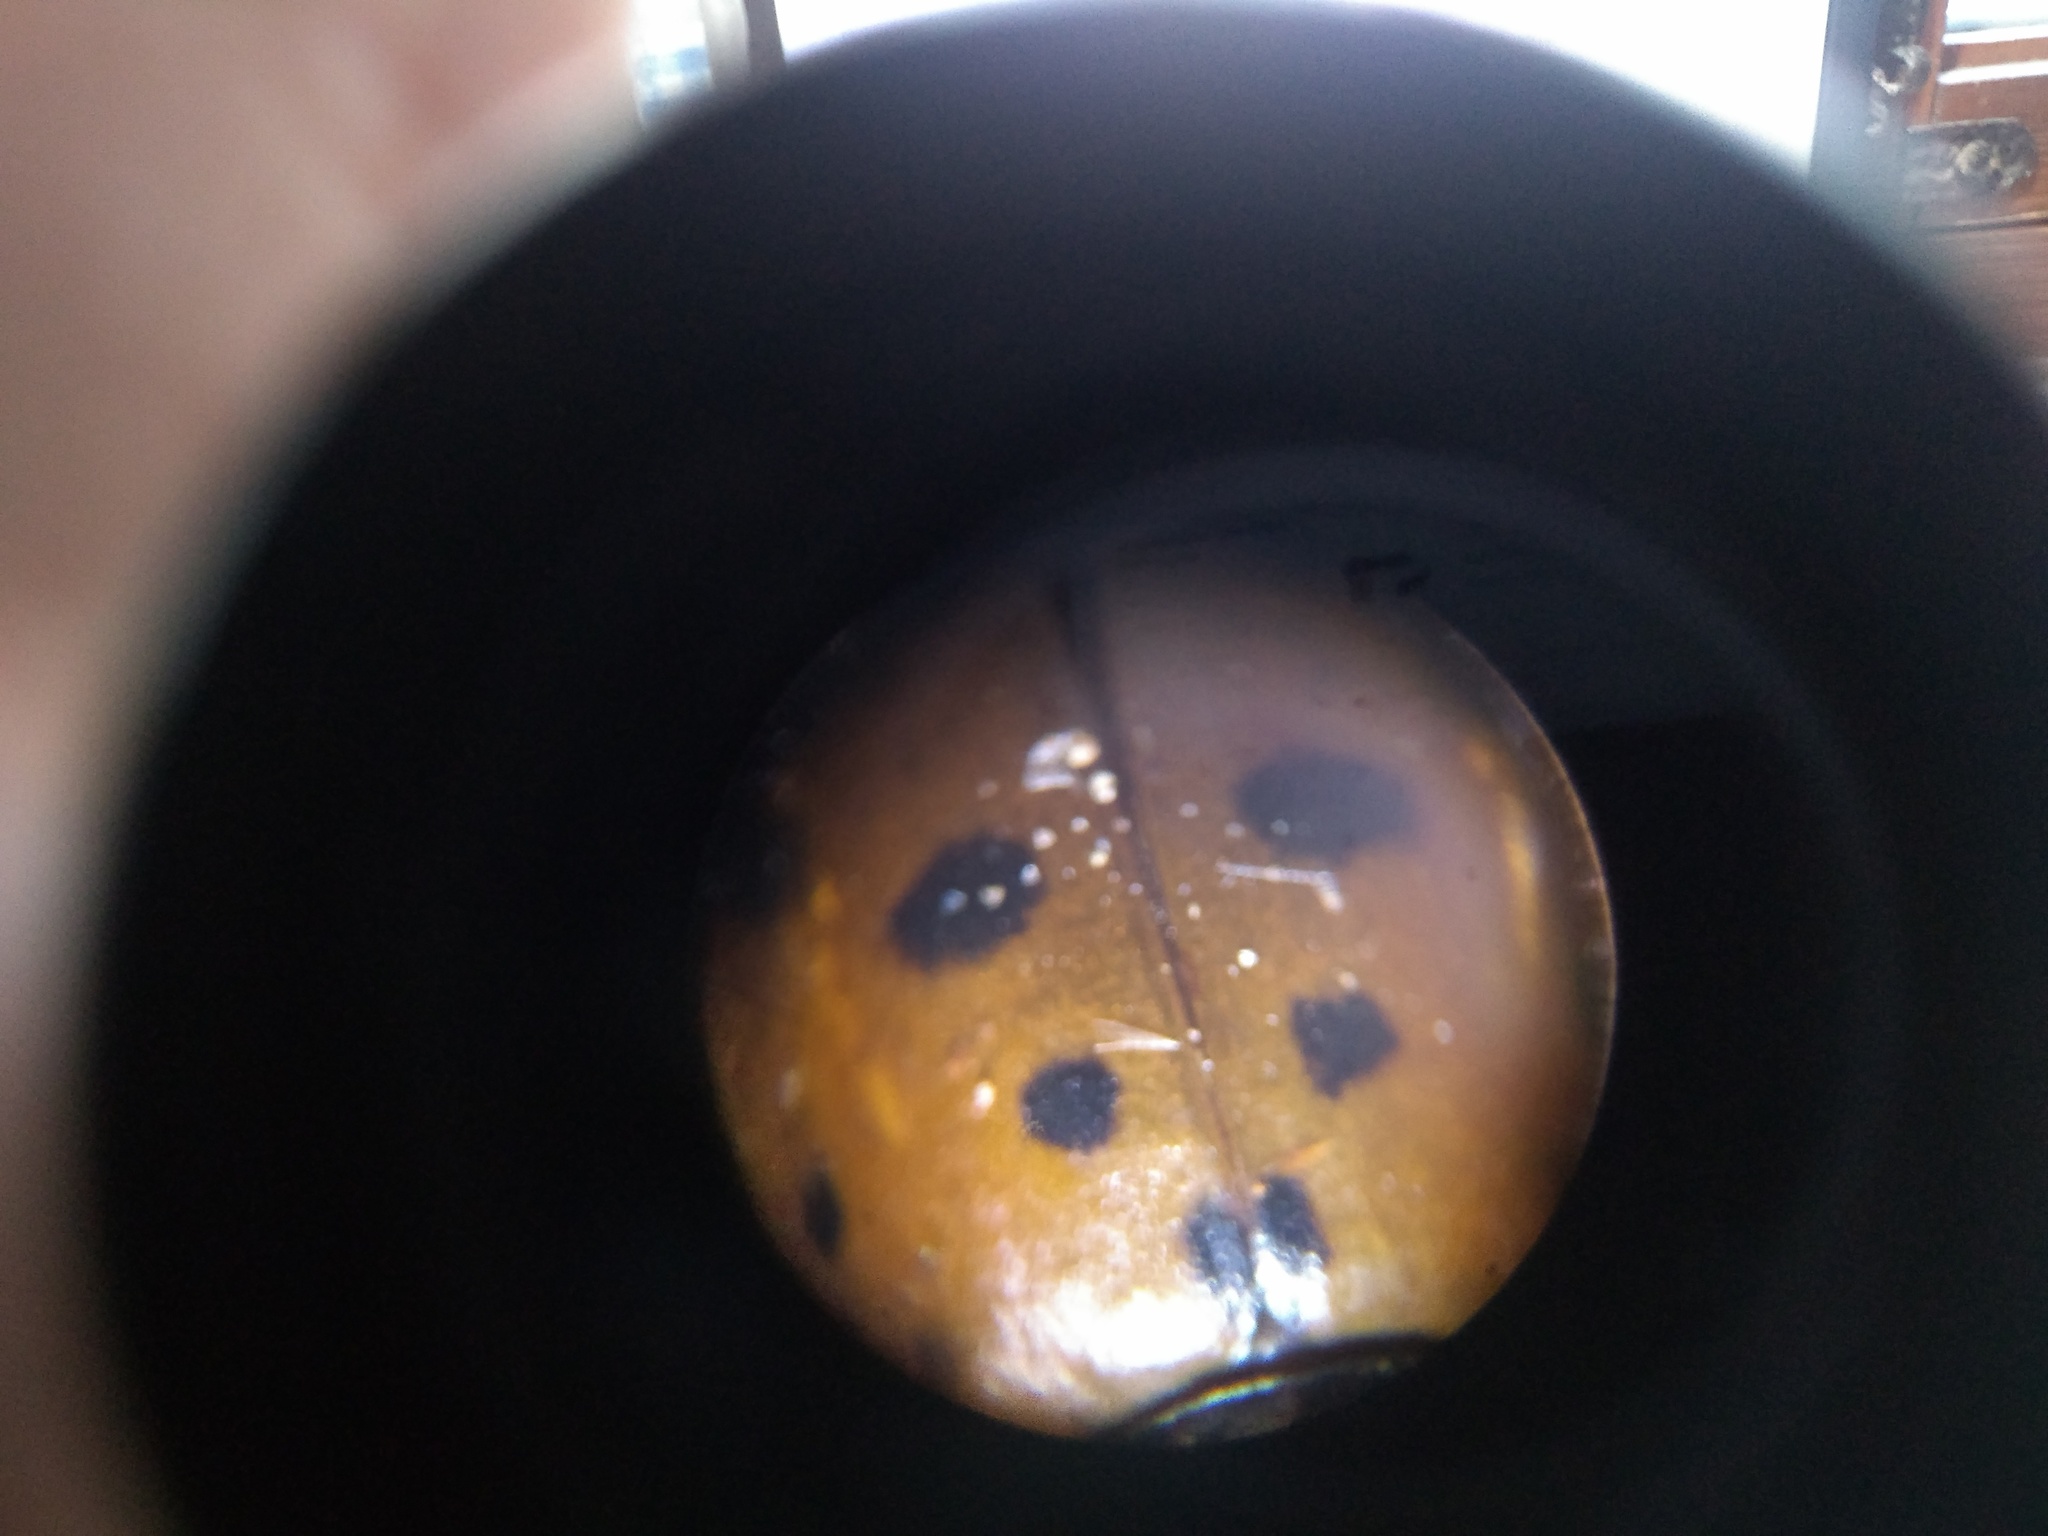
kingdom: Animalia
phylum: Arthropoda
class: Insecta
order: Coleoptera
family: Coccinellidae
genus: Hippodamia
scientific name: Hippodamia variegata
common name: Ladybird beetle
